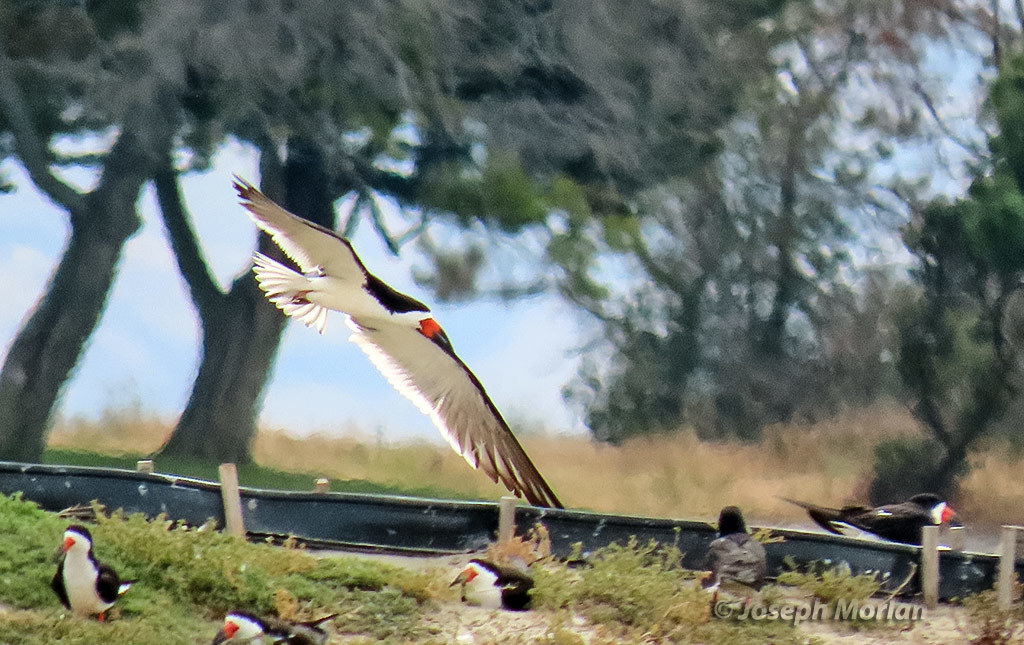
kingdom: Animalia
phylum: Chordata
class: Aves
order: Charadriiformes
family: Laridae
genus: Rynchops
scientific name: Rynchops niger
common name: Black skimmer
